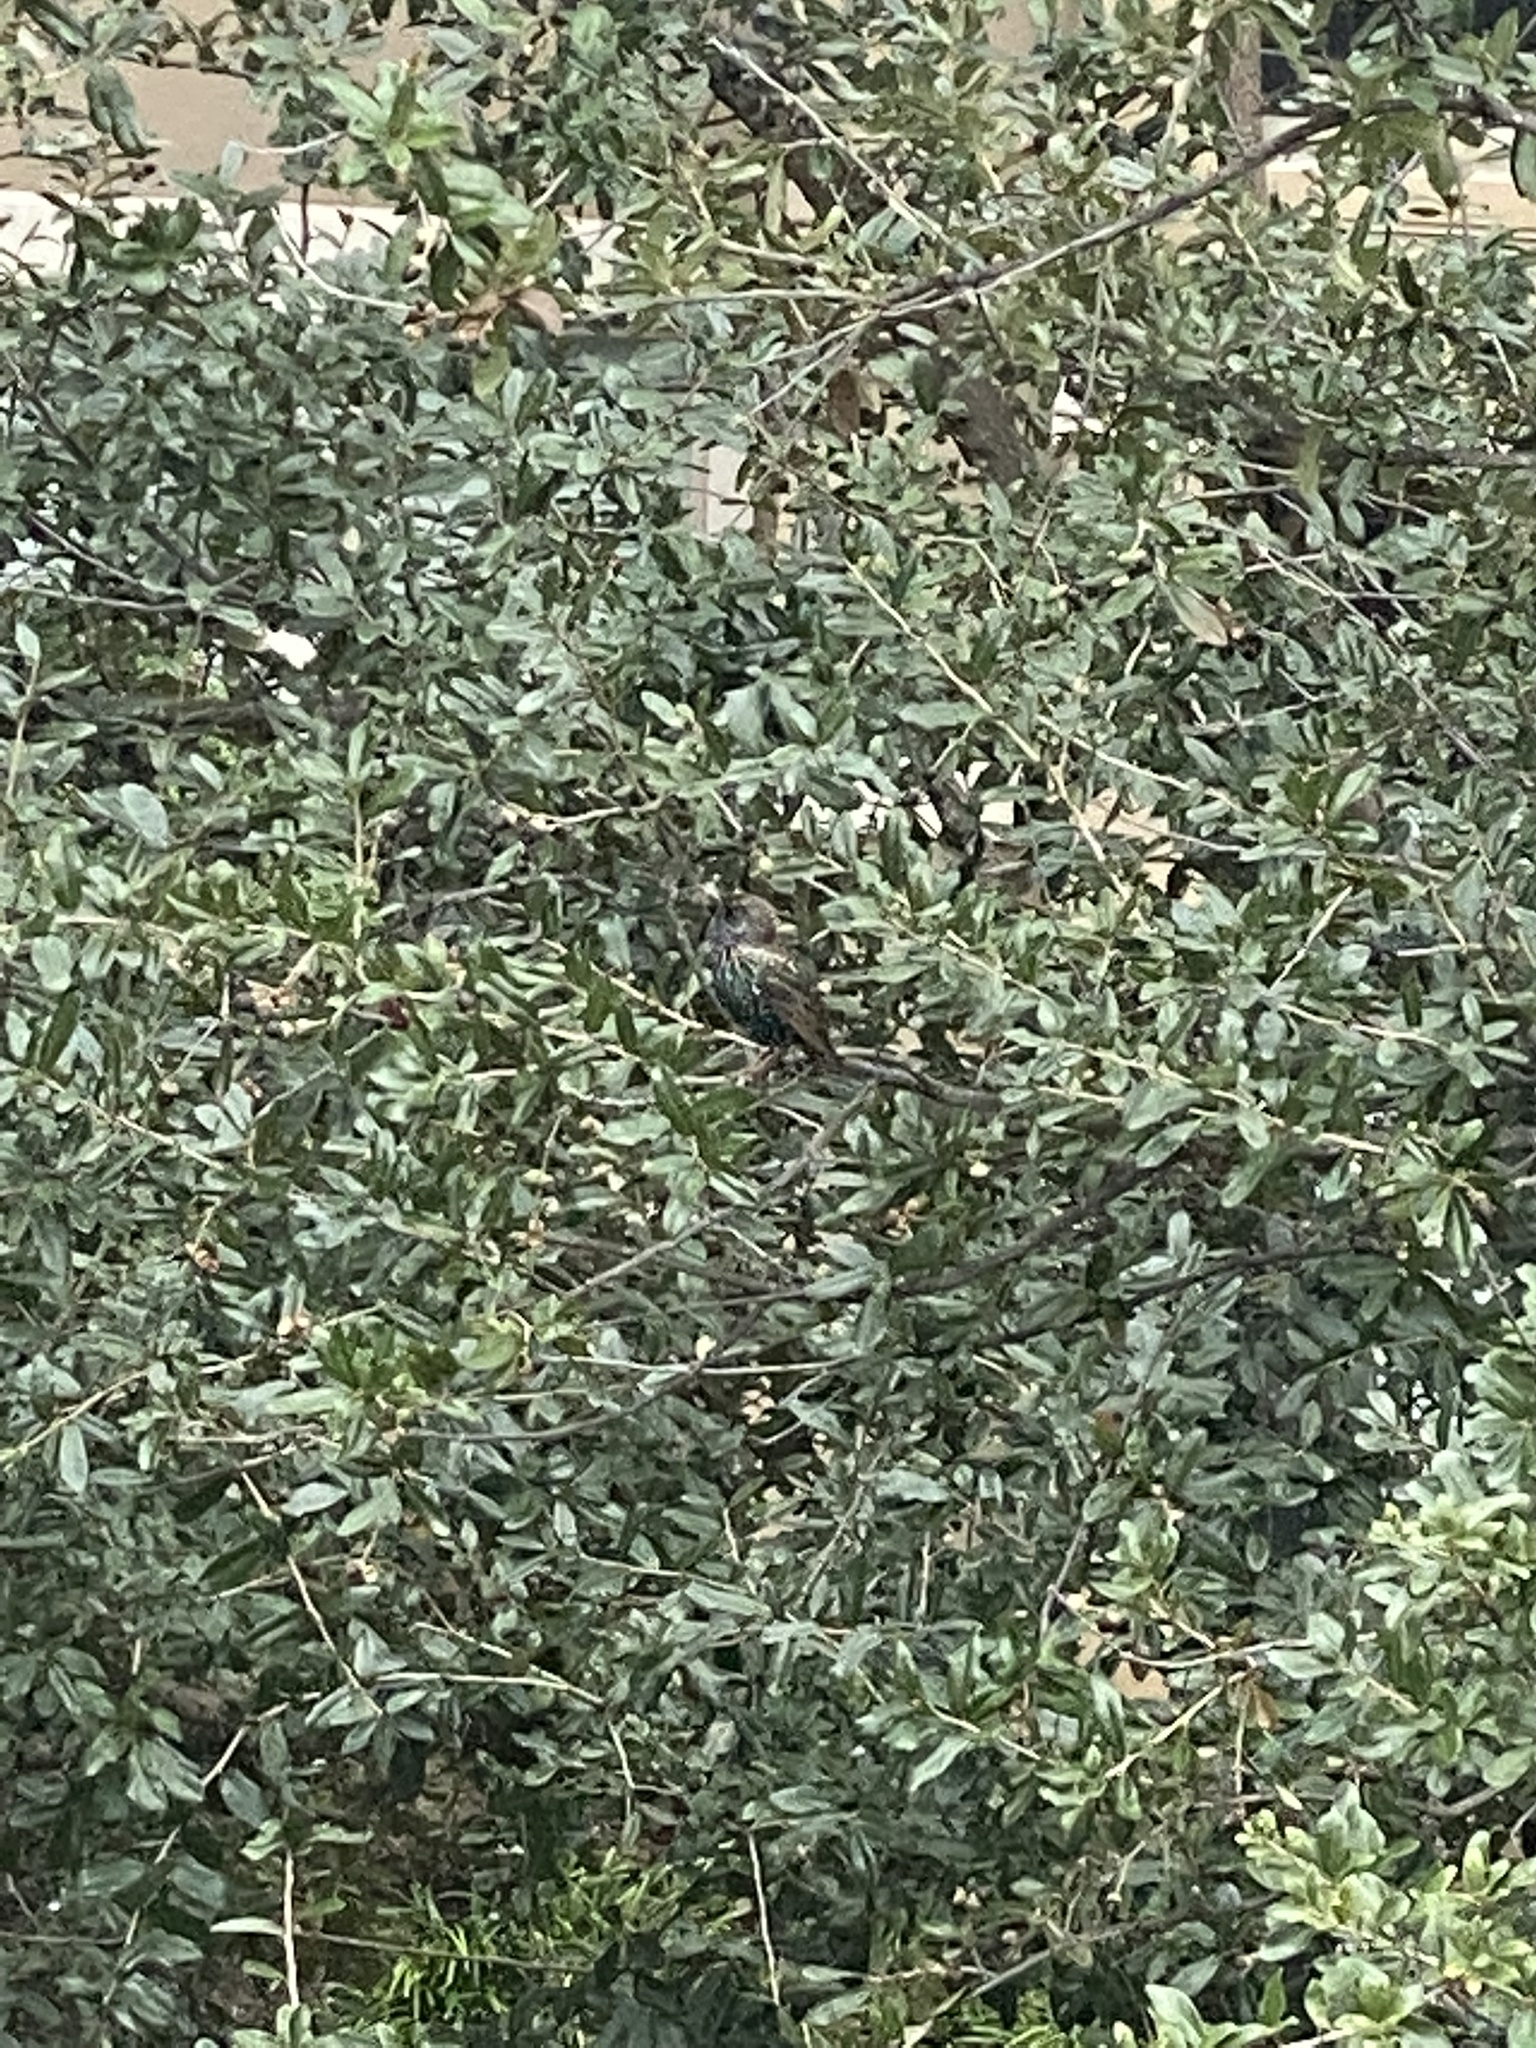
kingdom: Animalia
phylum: Chordata
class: Aves
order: Passeriformes
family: Sturnidae
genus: Sturnus
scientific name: Sturnus vulgaris
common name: Common starling
